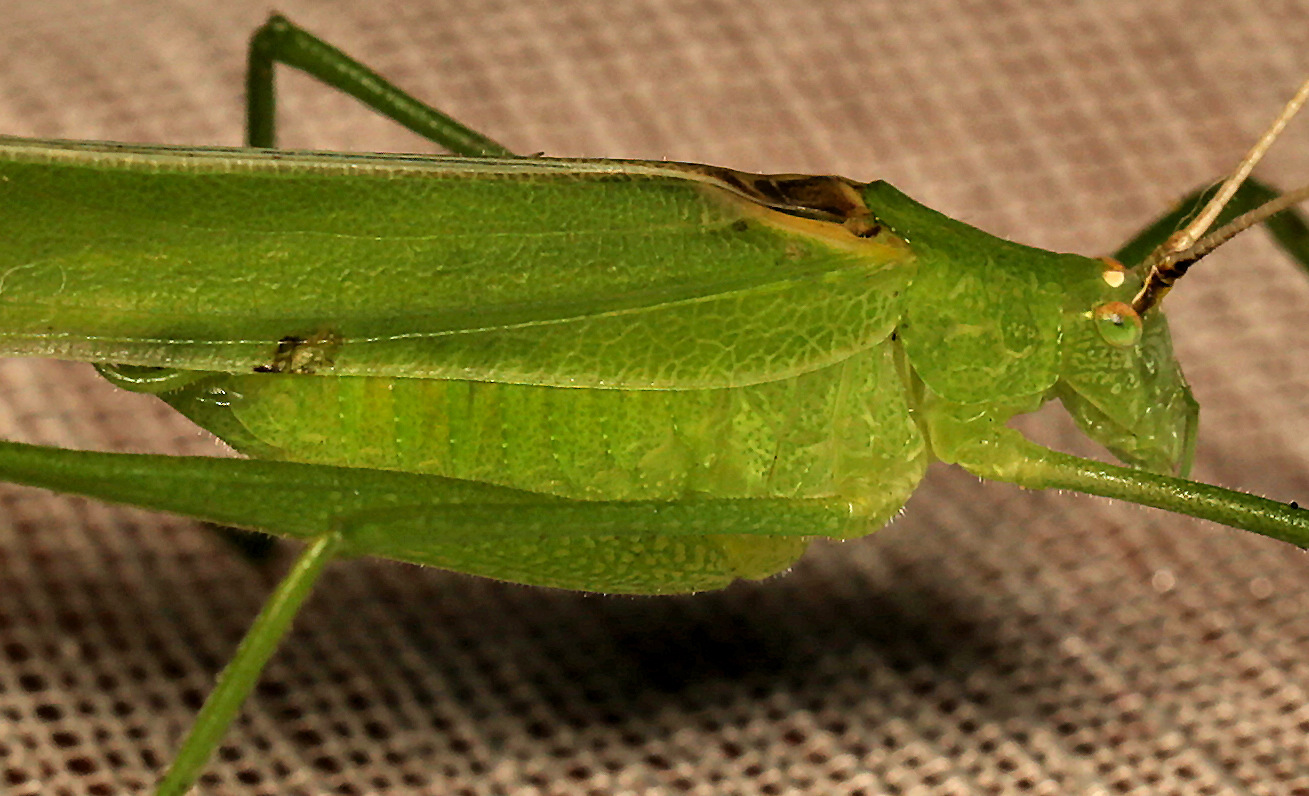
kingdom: Animalia
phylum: Arthropoda
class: Insecta
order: Orthoptera
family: Tettigoniidae
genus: Phaneroptera
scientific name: Phaneroptera sparsa
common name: Sickle-bearing leaf katydid
